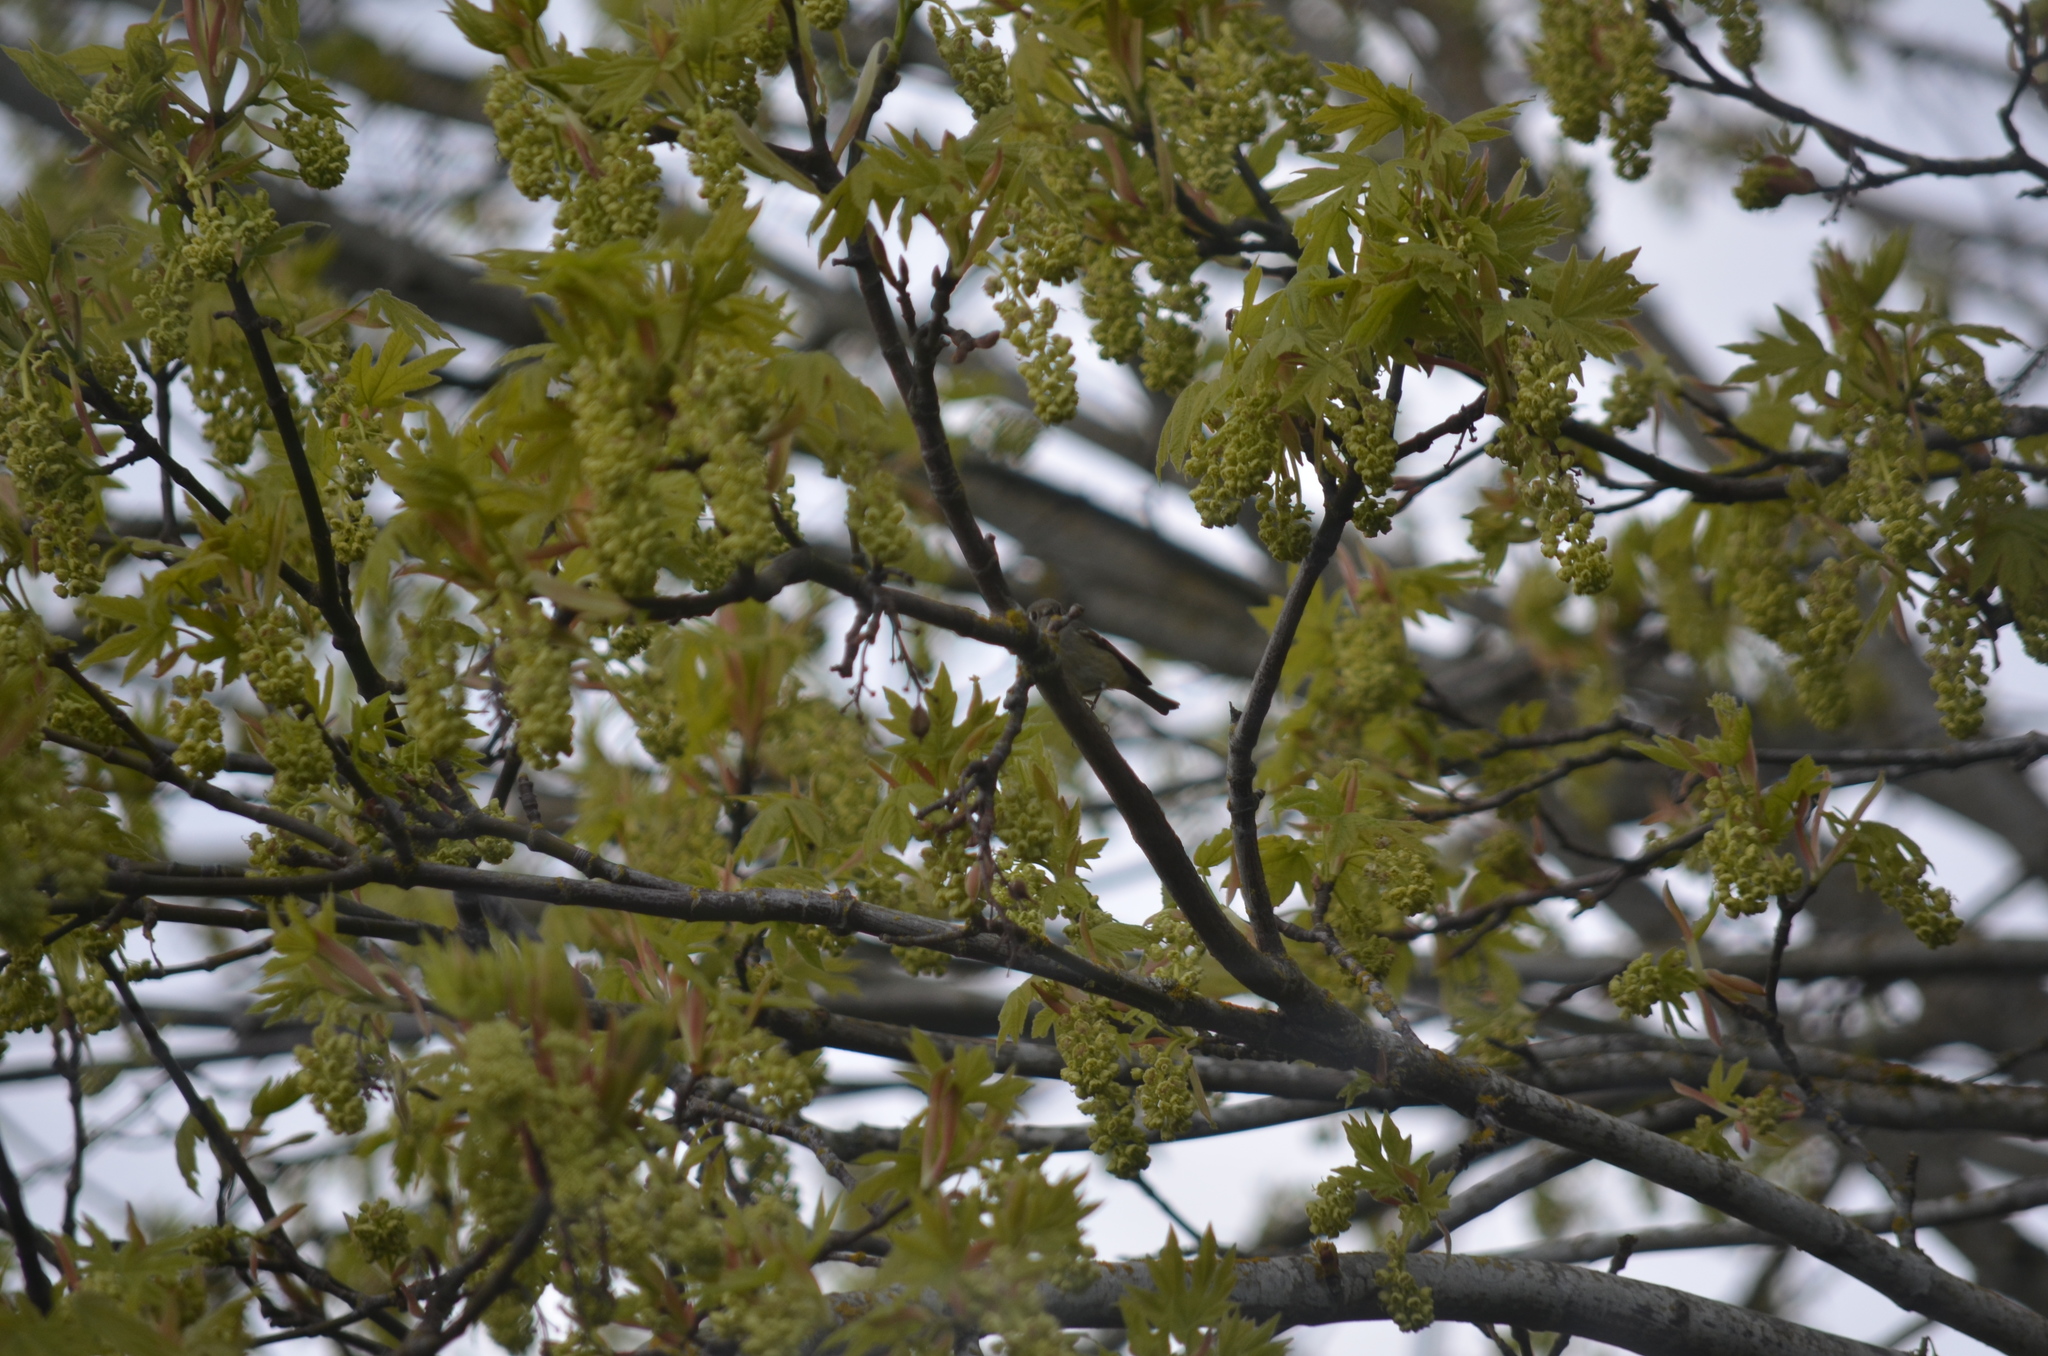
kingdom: Animalia
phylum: Chordata
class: Aves
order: Passeriformes
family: Regulidae
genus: Regulus
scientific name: Regulus calendula
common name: Ruby-crowned kinglet
